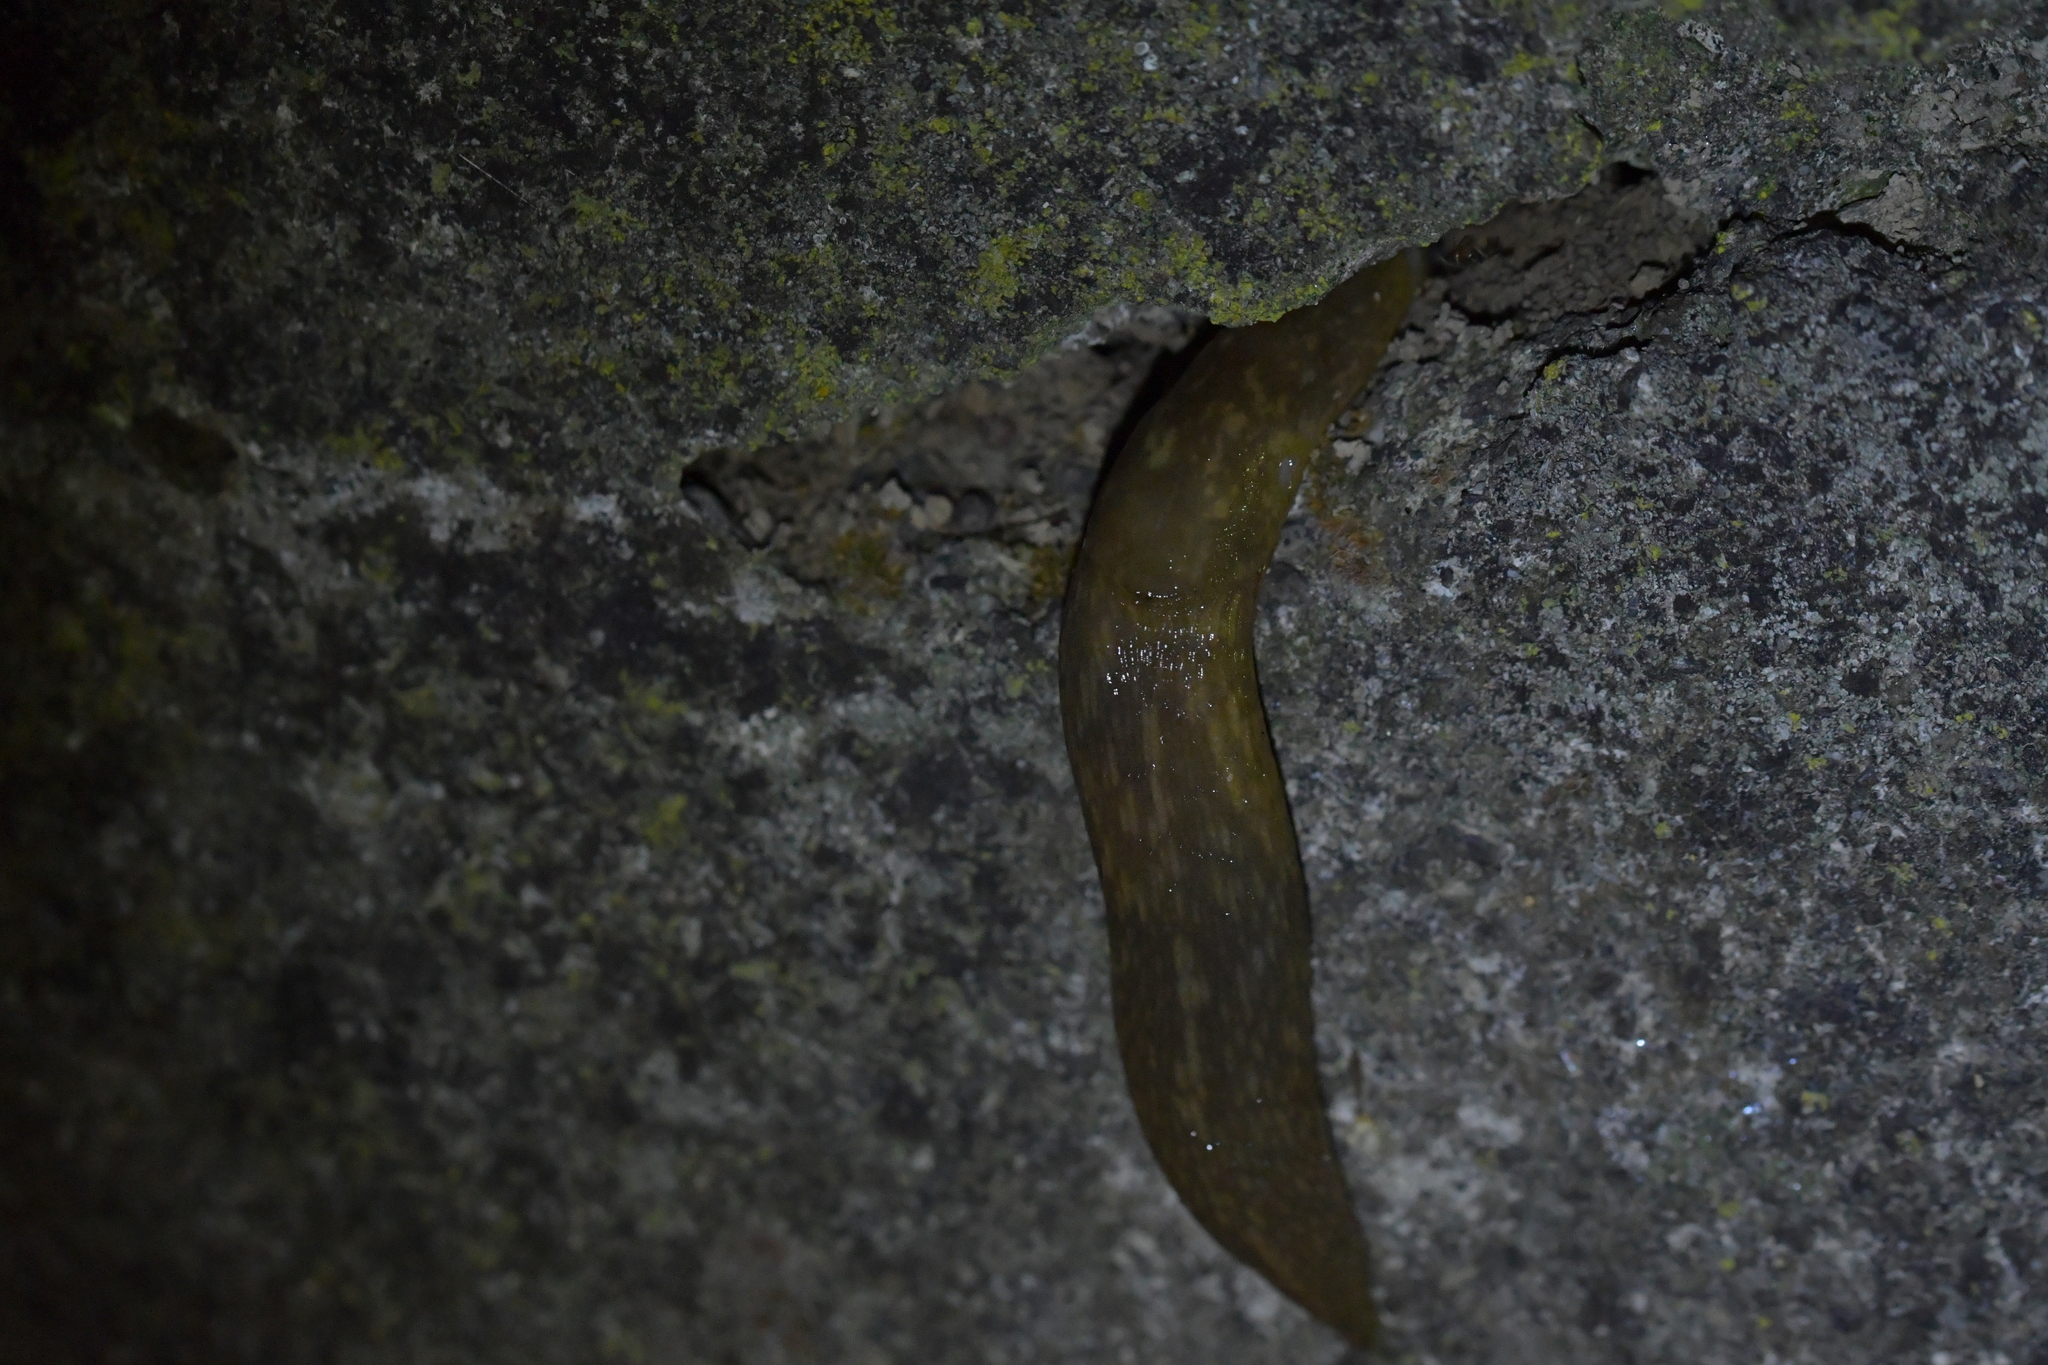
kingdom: Animalia
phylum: Mollusca
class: Gastropoda
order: Stylommatophora
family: Limacidae
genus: Limacus
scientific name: Limacus flavus
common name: Yellow gardenslug
